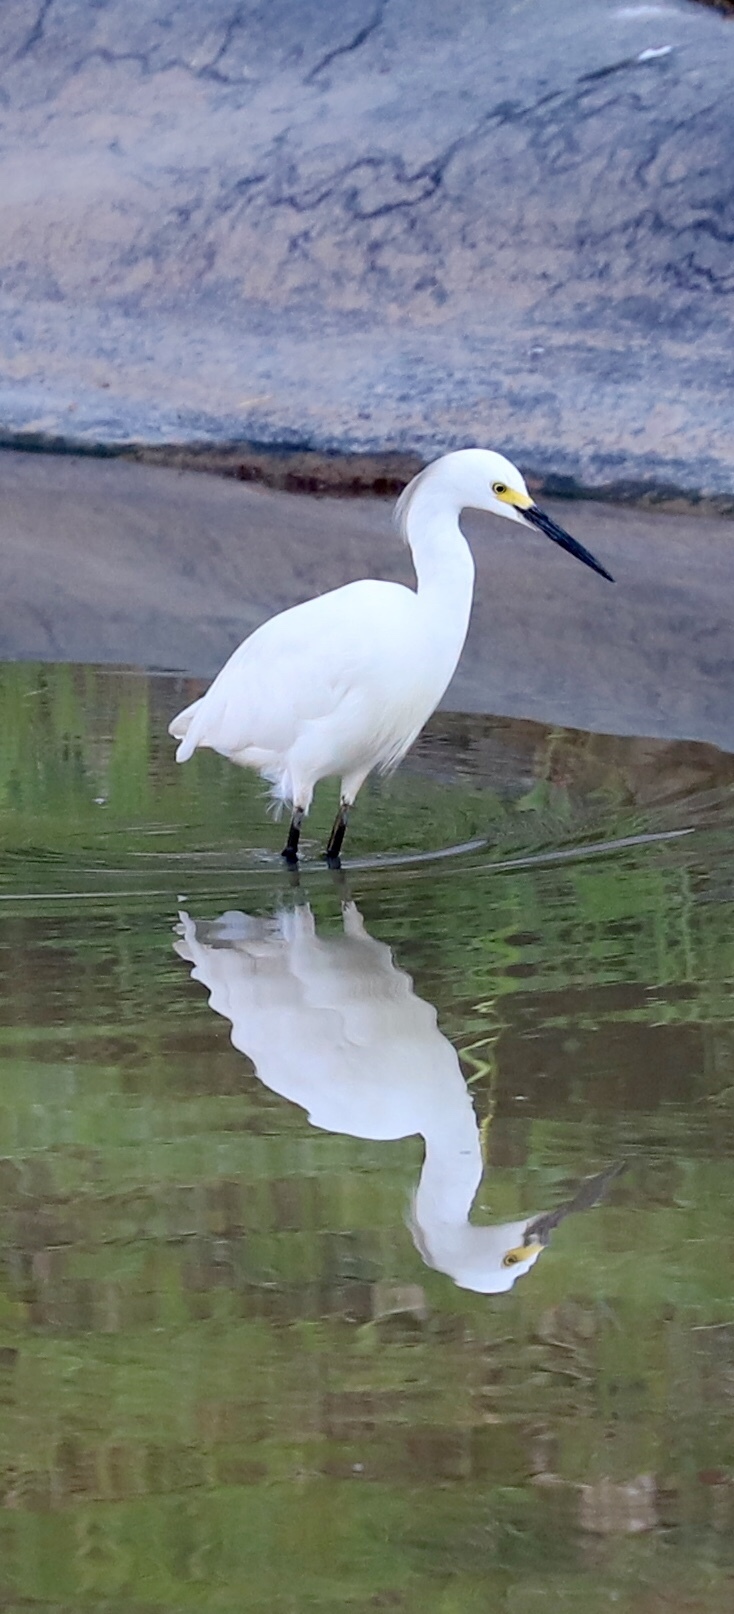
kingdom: Animalia
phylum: Chordata
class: Aves
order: Pelecaniformes
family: Ardeidae
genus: Egretta
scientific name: Egretta thula
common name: Snowy egret
